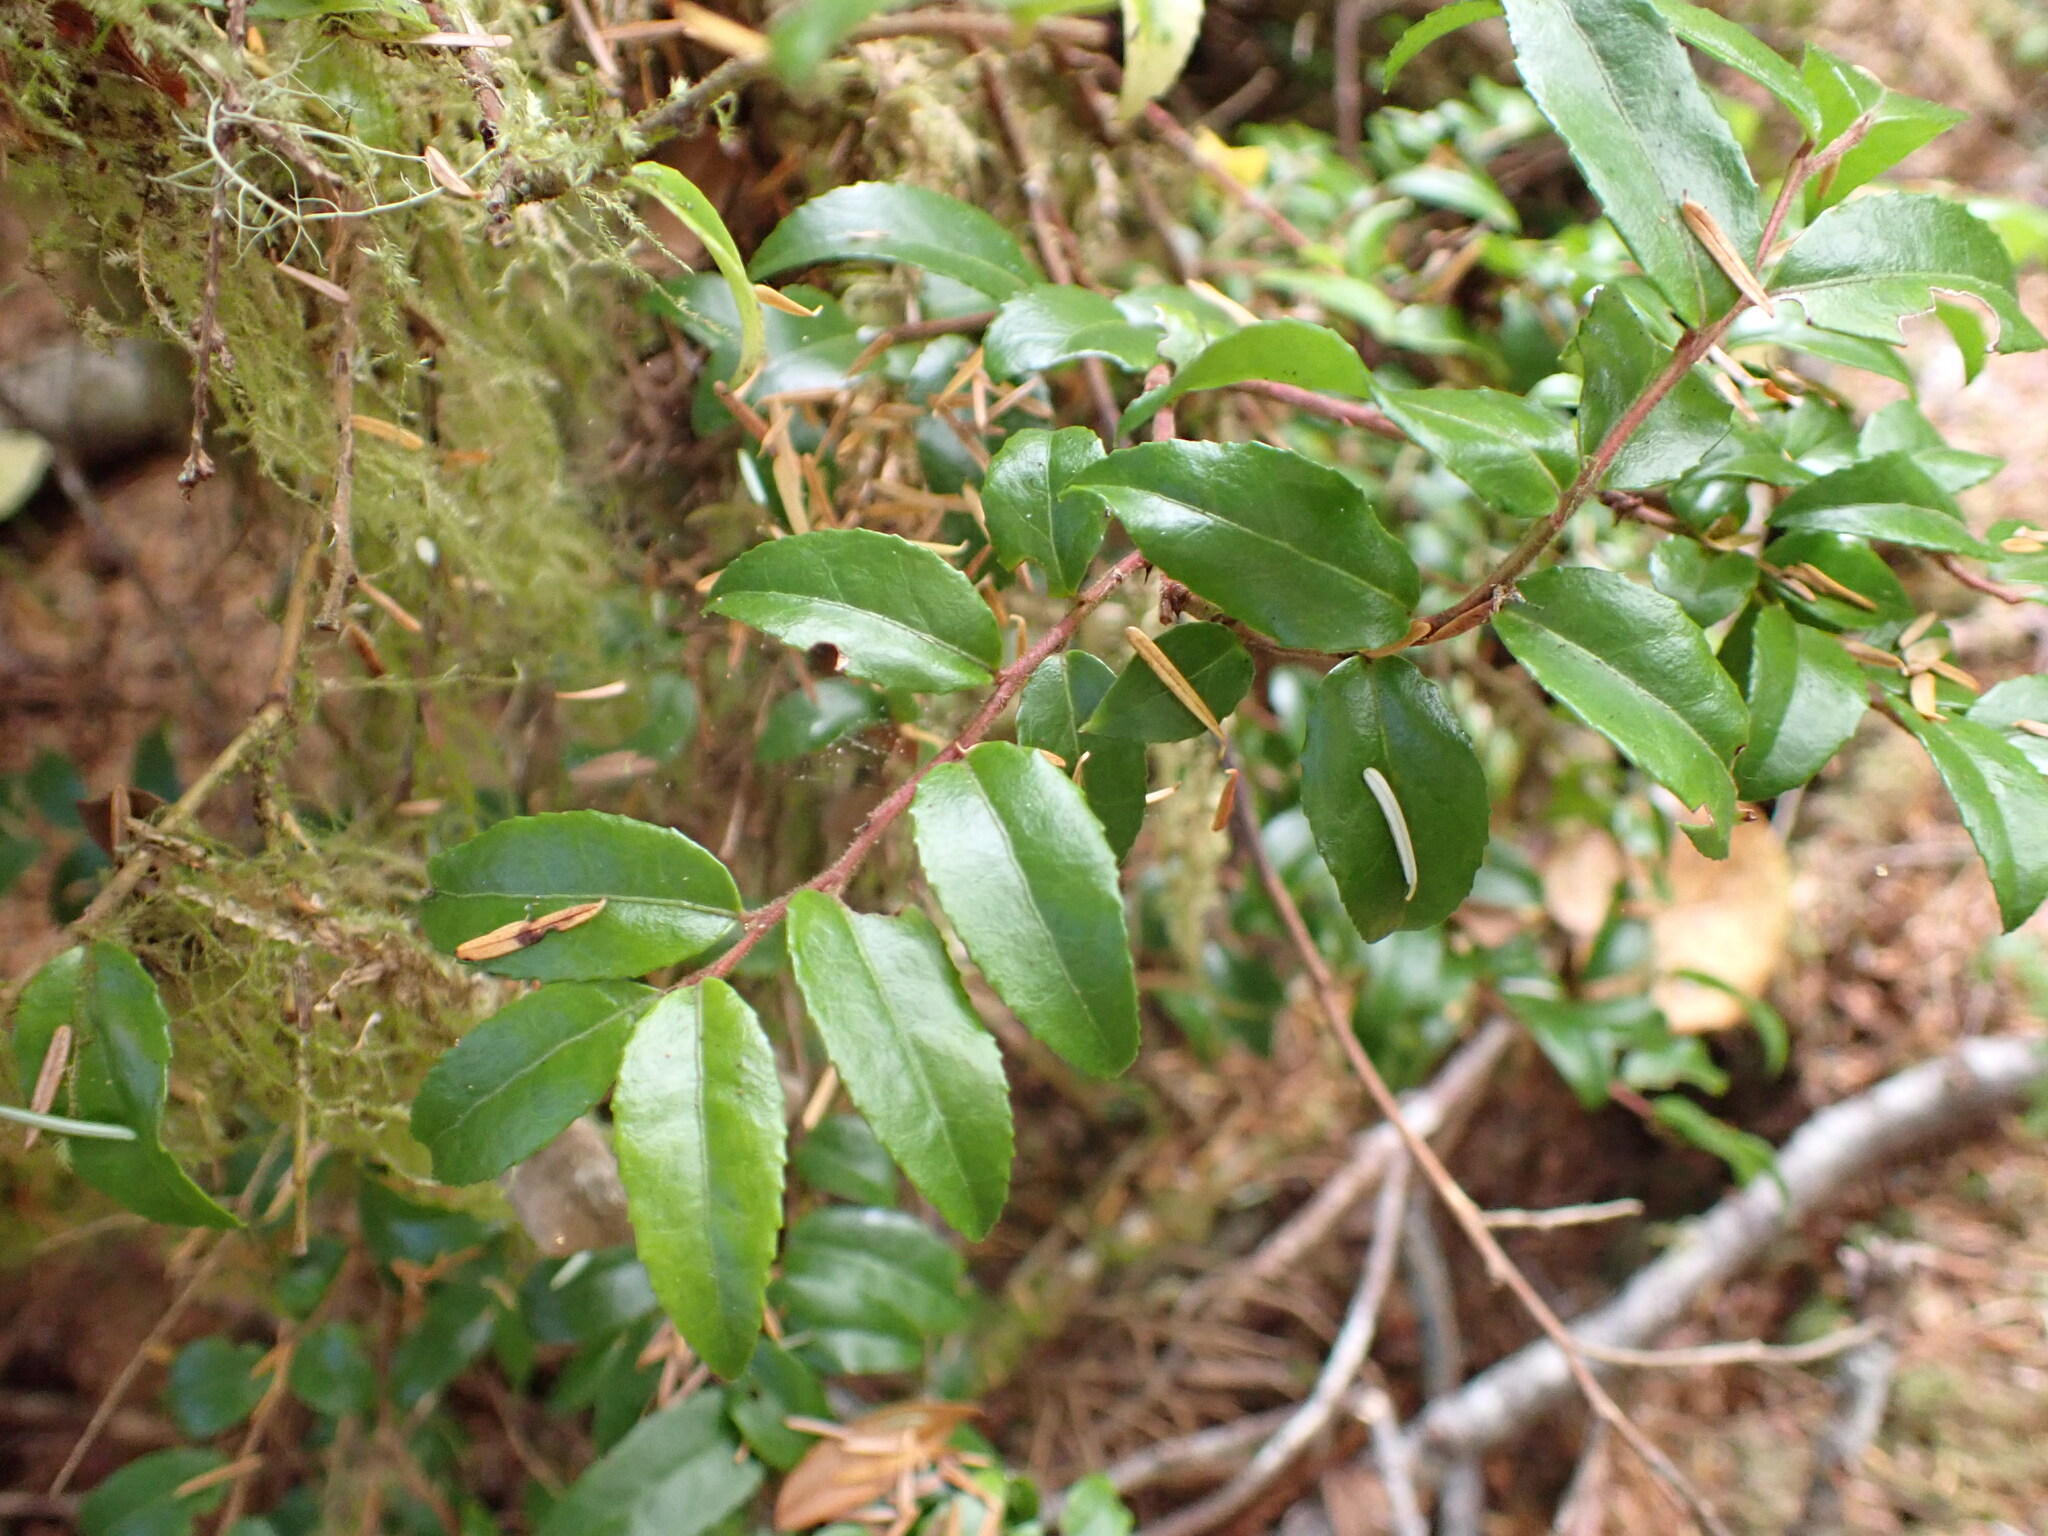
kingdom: Plantae
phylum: Tracheophyta
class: Magnoliopsida
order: Ericales
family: Ericaceae
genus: Vaccinium
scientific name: Vaccinium ovatum
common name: California-huckleberry
